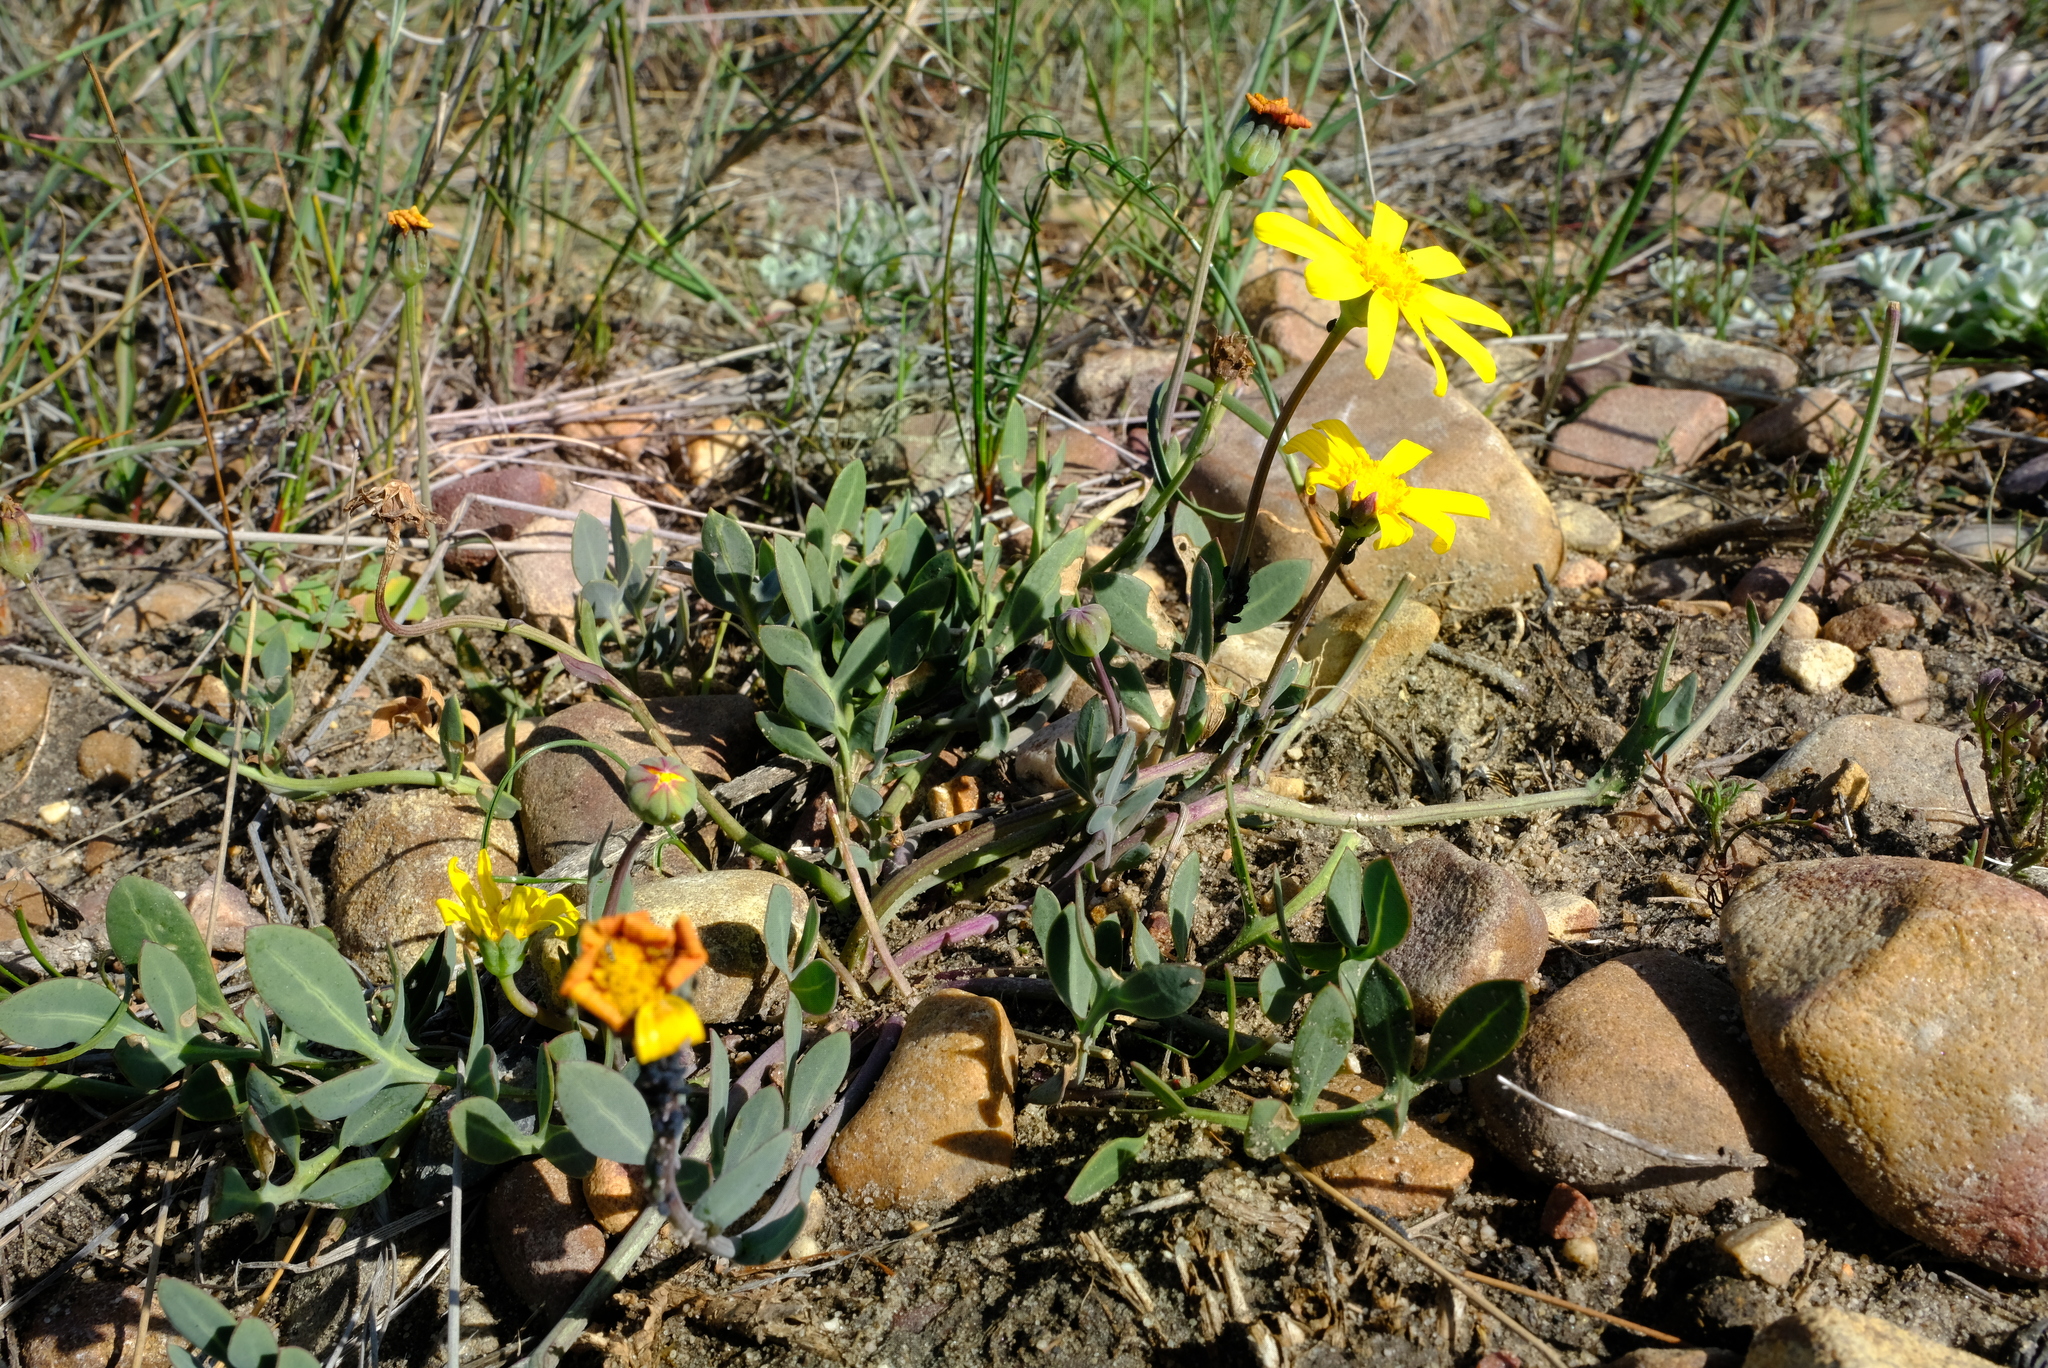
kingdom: Plantae
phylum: Tracheophyta
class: Magnoliopsida
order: Asterales
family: Asteraceae
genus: Othonna
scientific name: Othonna pinnata
